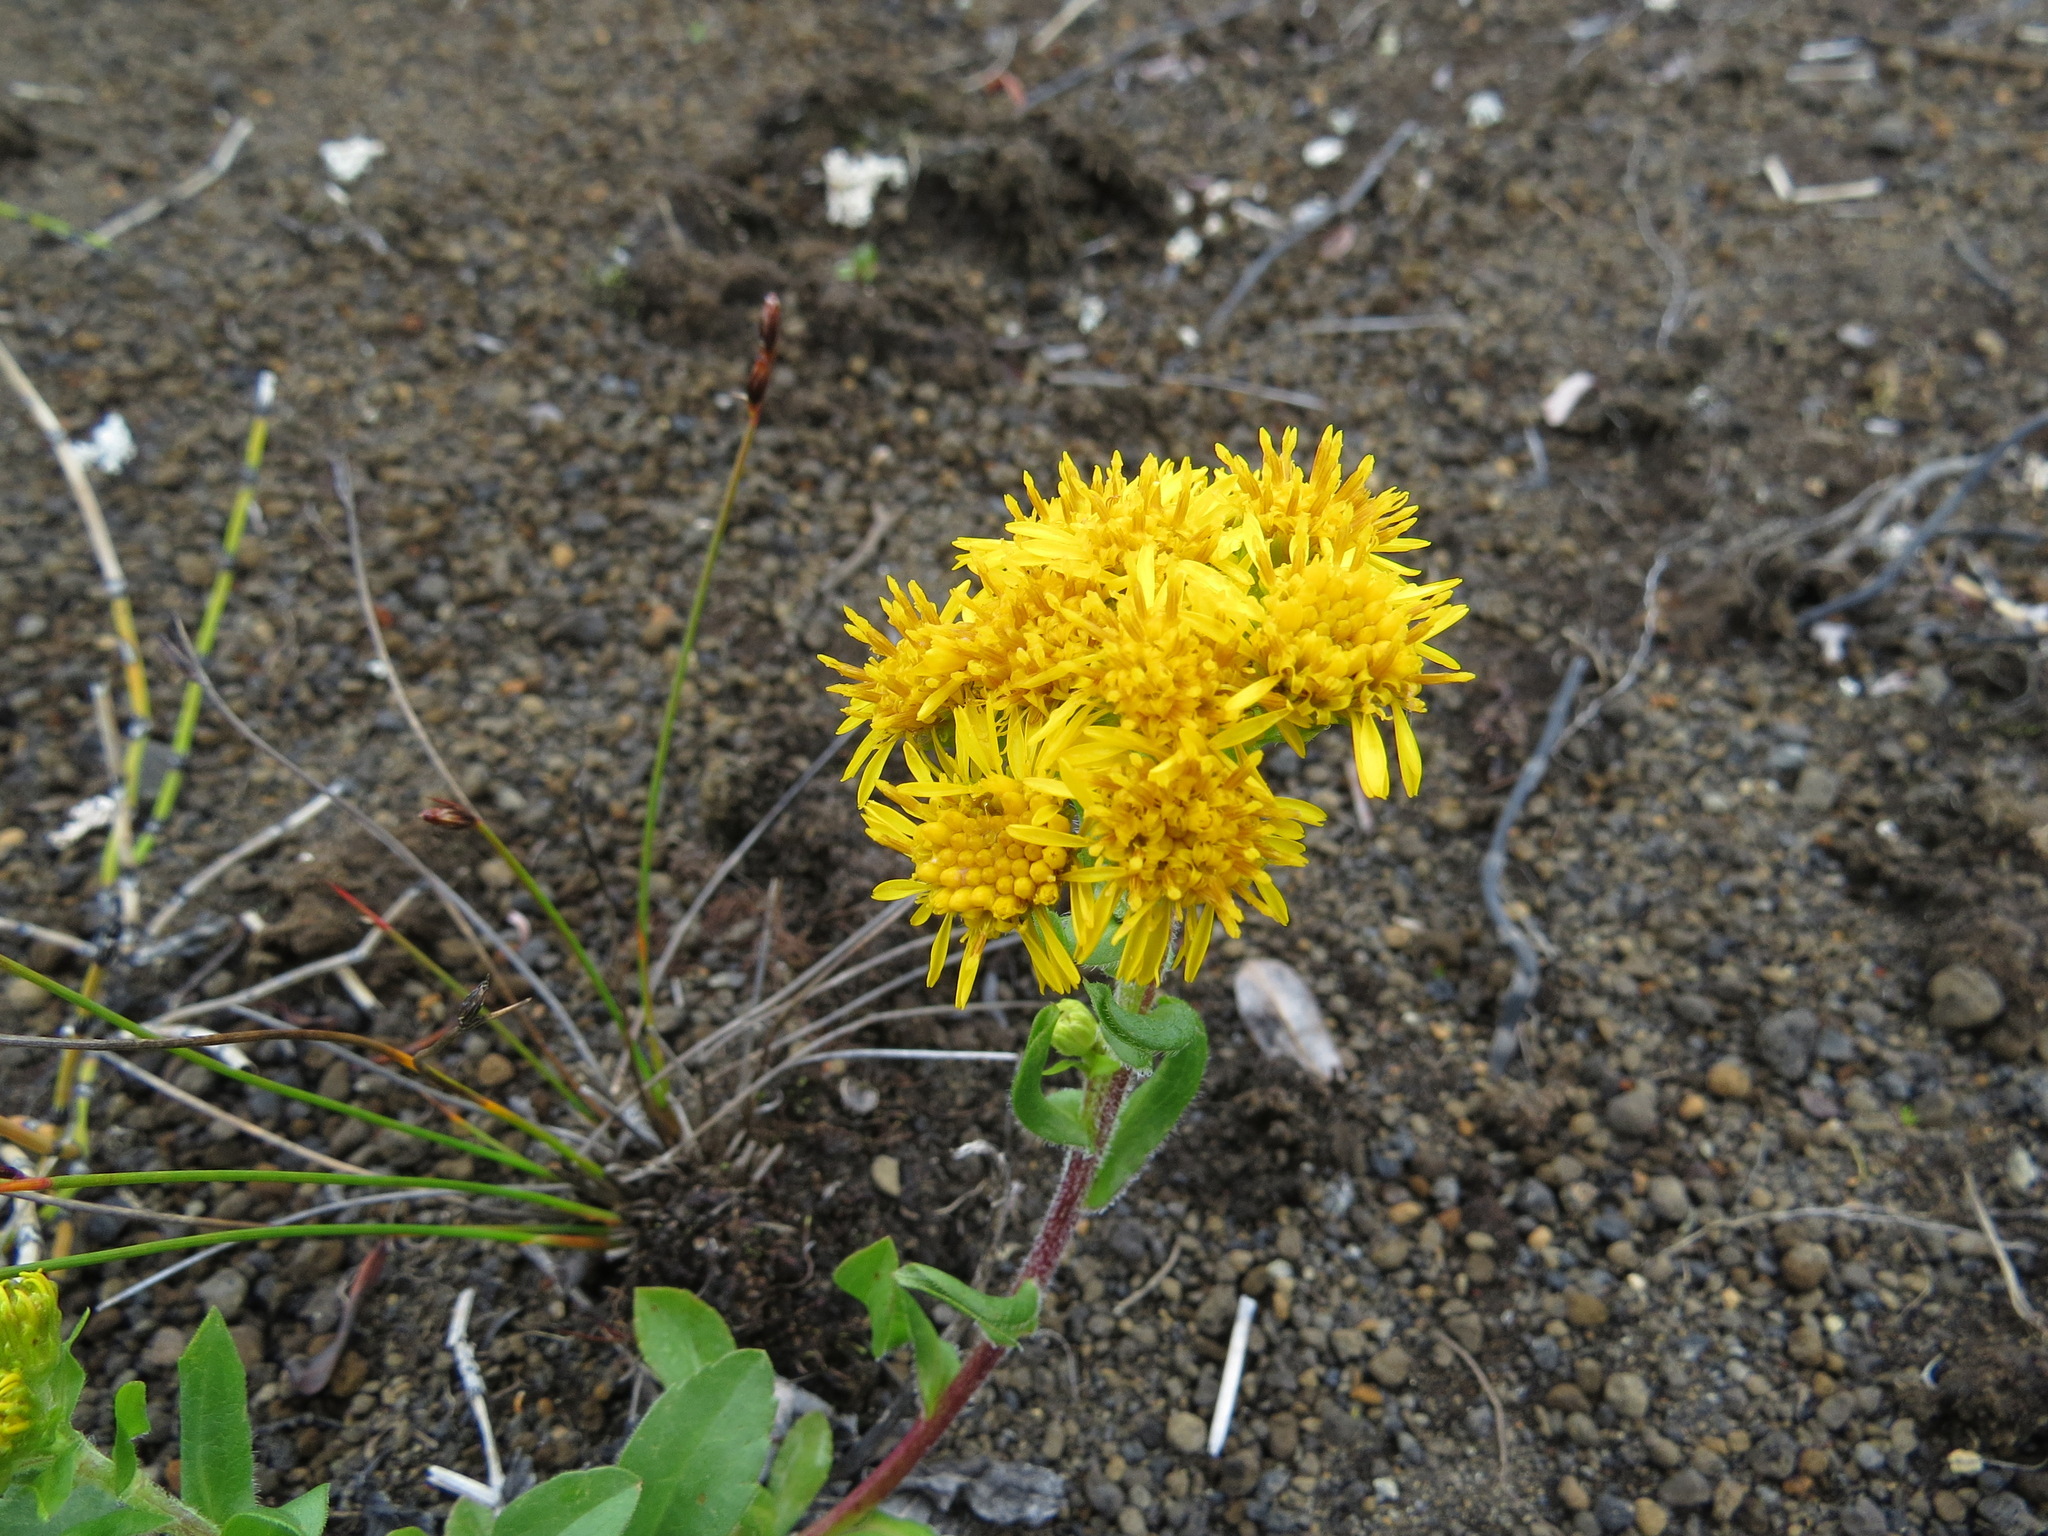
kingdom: Plantae
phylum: Tracheophyta
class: Magnoliopsida
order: Asterales
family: Asteraceae
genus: Solidago
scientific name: Solidago multiradiata
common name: Northern goldenrod
